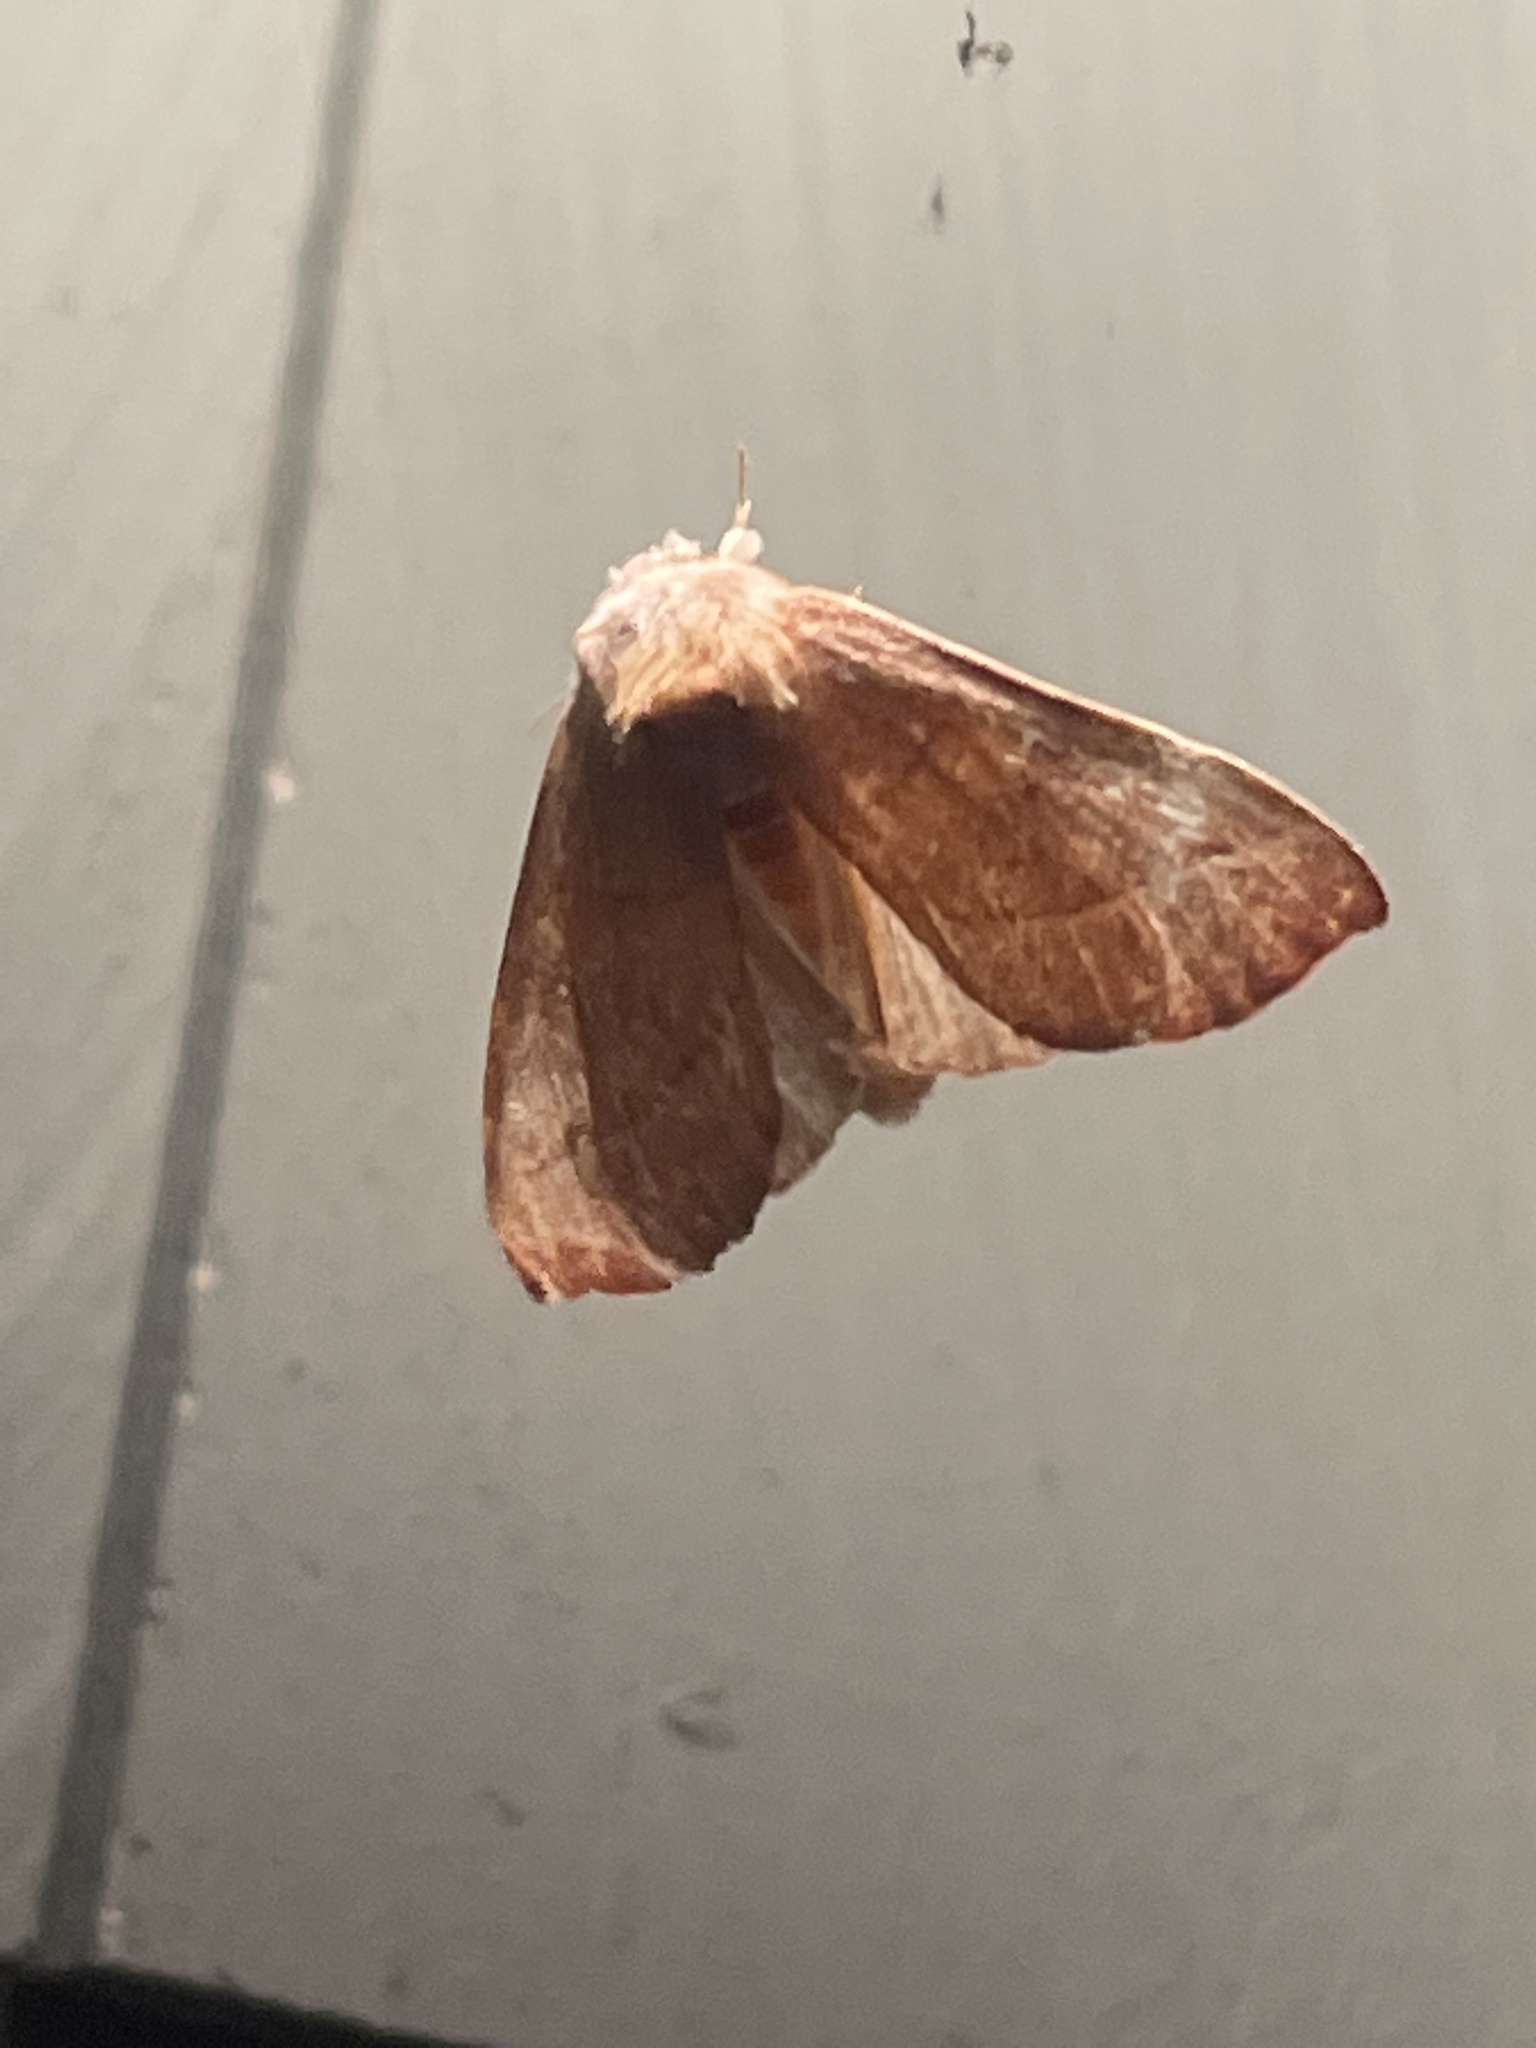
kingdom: Animalia
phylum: Arthropoda
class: Insecta
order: Lepidoptera
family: Notodontidae
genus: Nadata
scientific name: Nadata gibbosa
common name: White-dotted prominent
